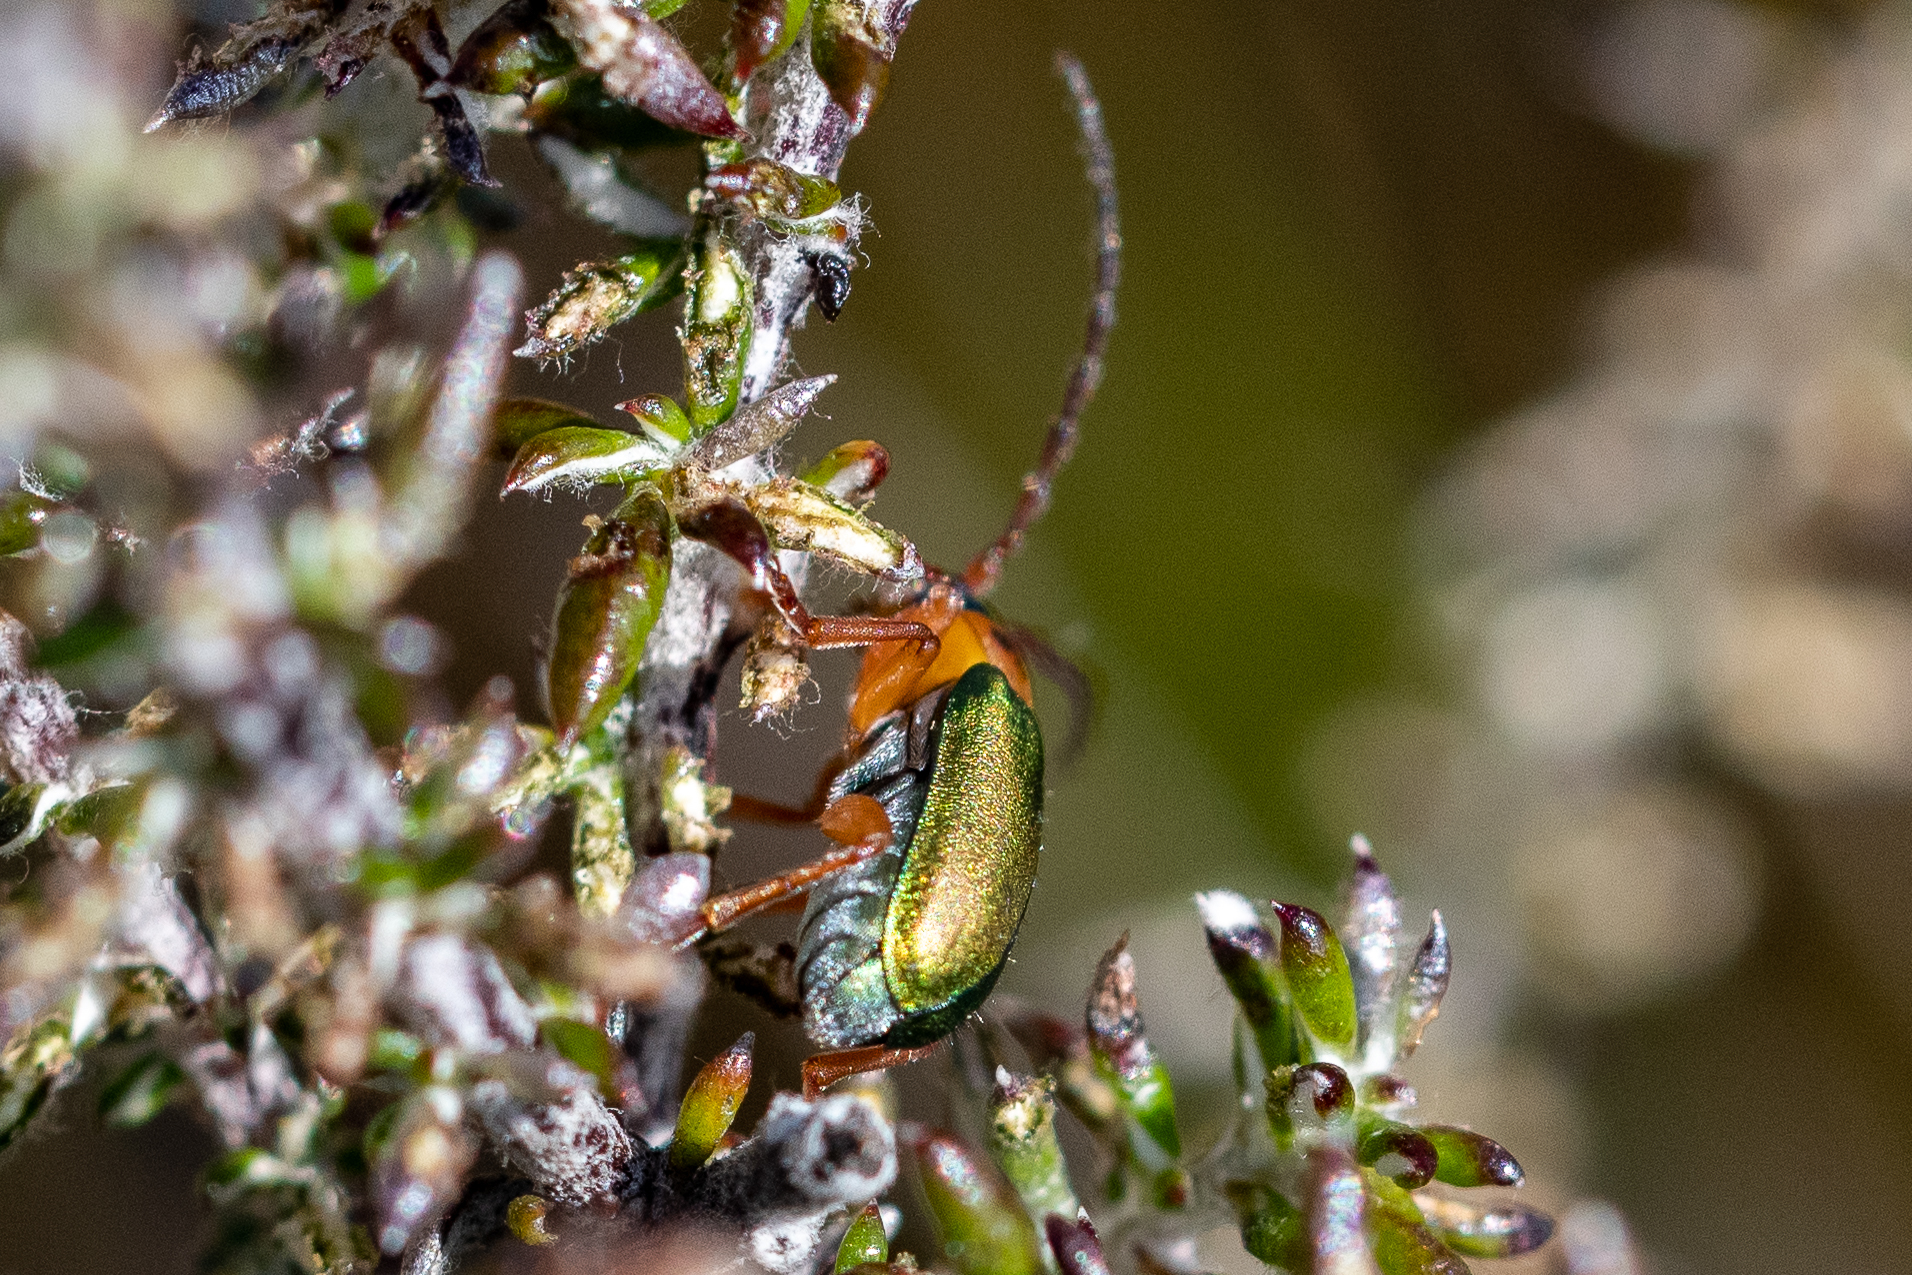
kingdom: Animalia
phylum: Arthropoda
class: Insecta
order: Coleoptera
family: Chrysomelidae
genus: Palaeophylia
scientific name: Palaeophylia
